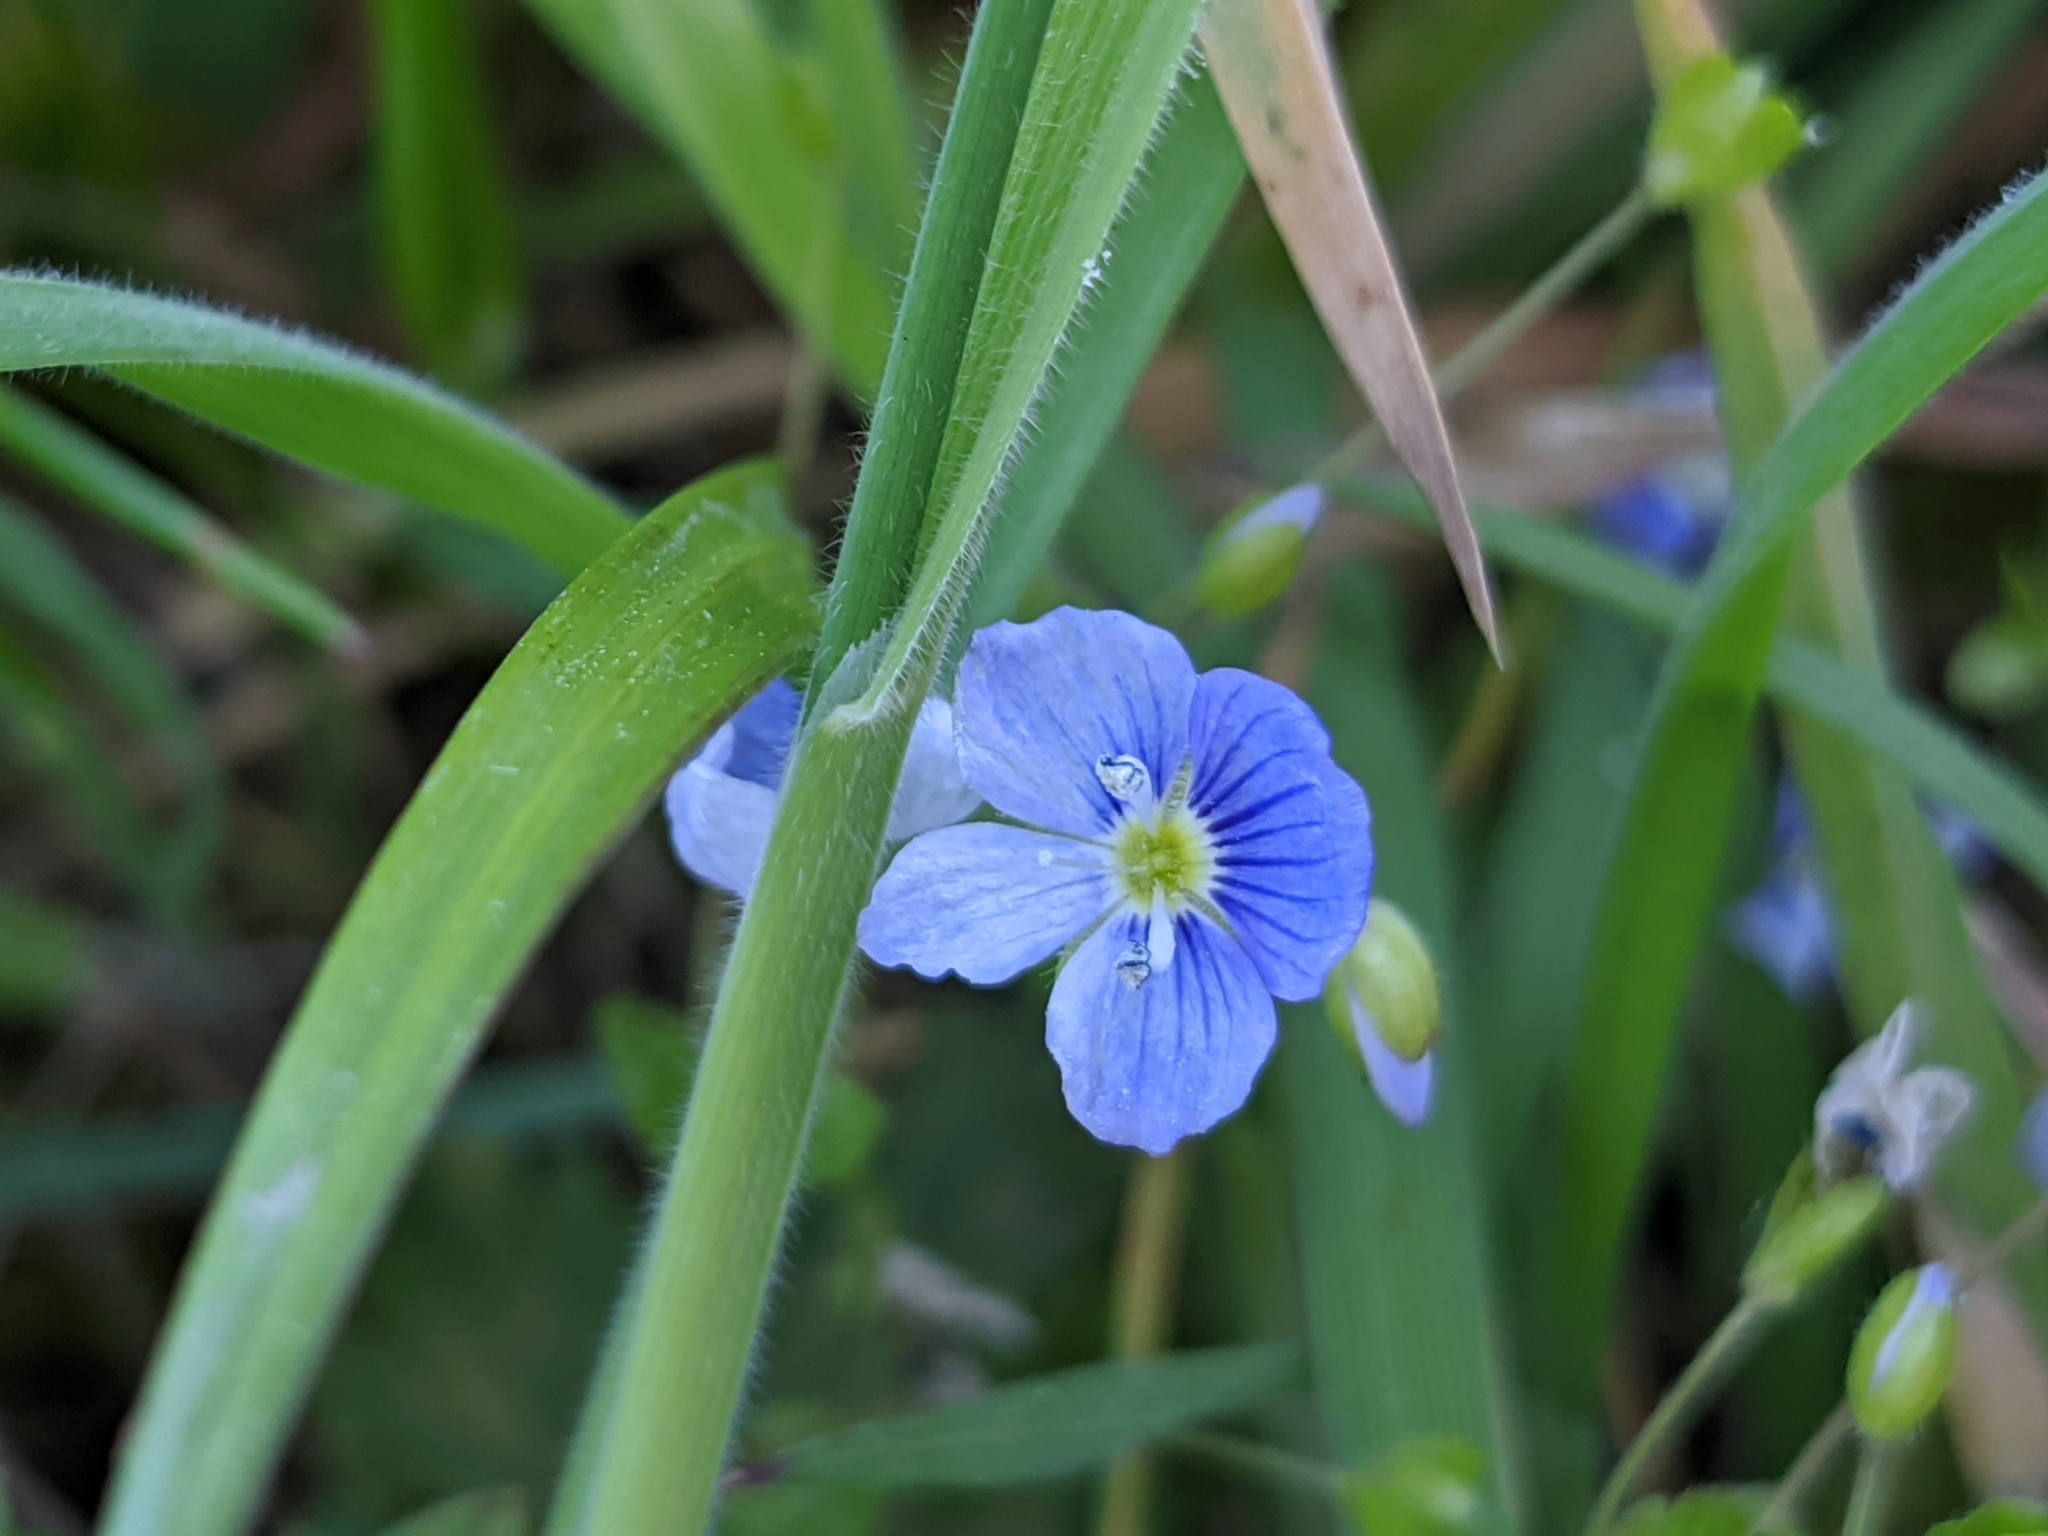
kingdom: Plantae
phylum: Tracheophyta
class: Magnoliopsida
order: Lamiales
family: Plantaginaceae
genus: Veronica
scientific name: Veronica filiformis
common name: Slender speedwell
